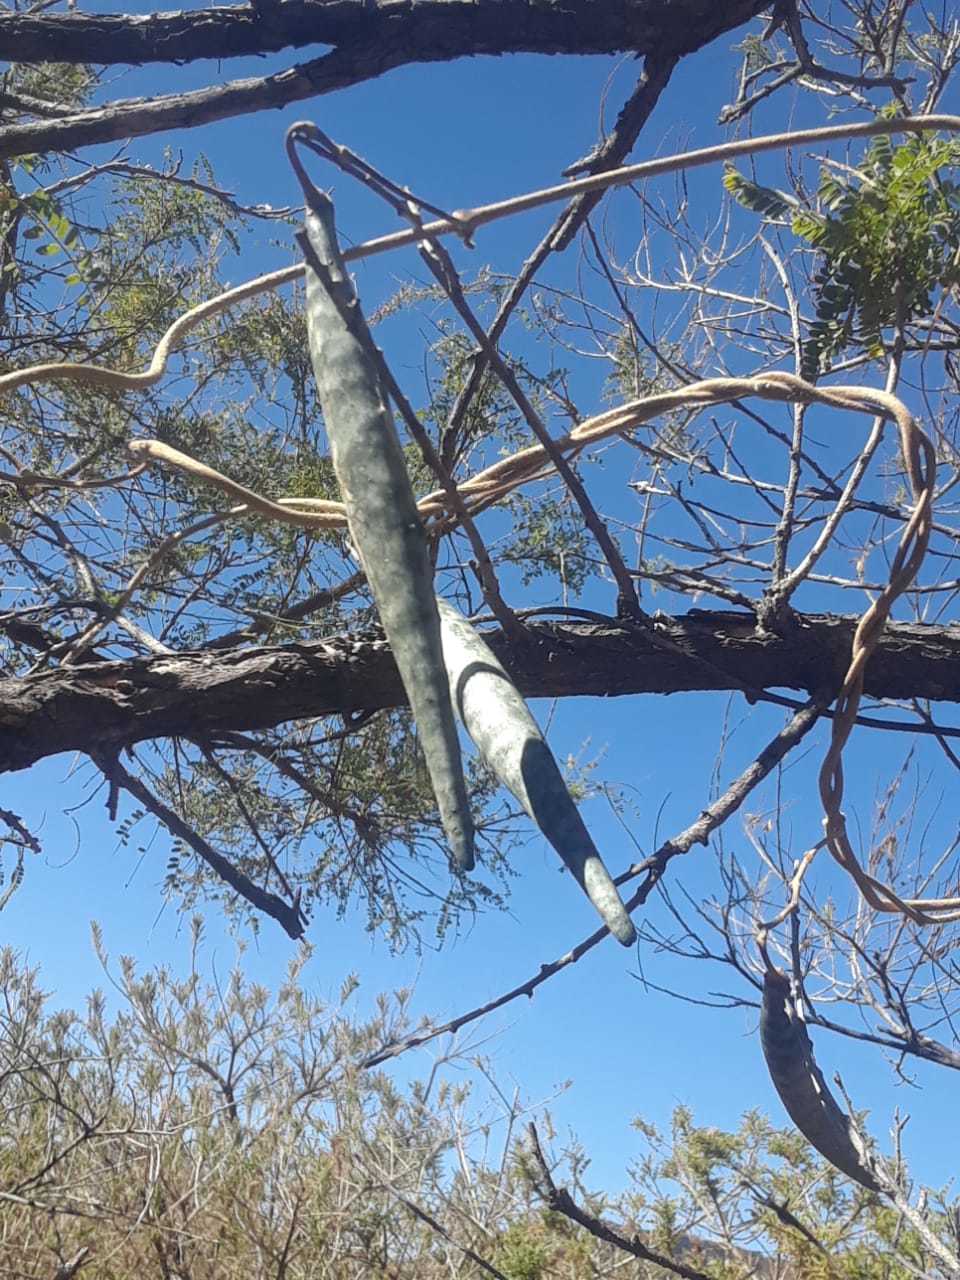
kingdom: Plantae
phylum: Tracheophyta
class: Magnoliopsida
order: Gentianales
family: Apocynaceae
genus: Matelea
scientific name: Matelea crenata
